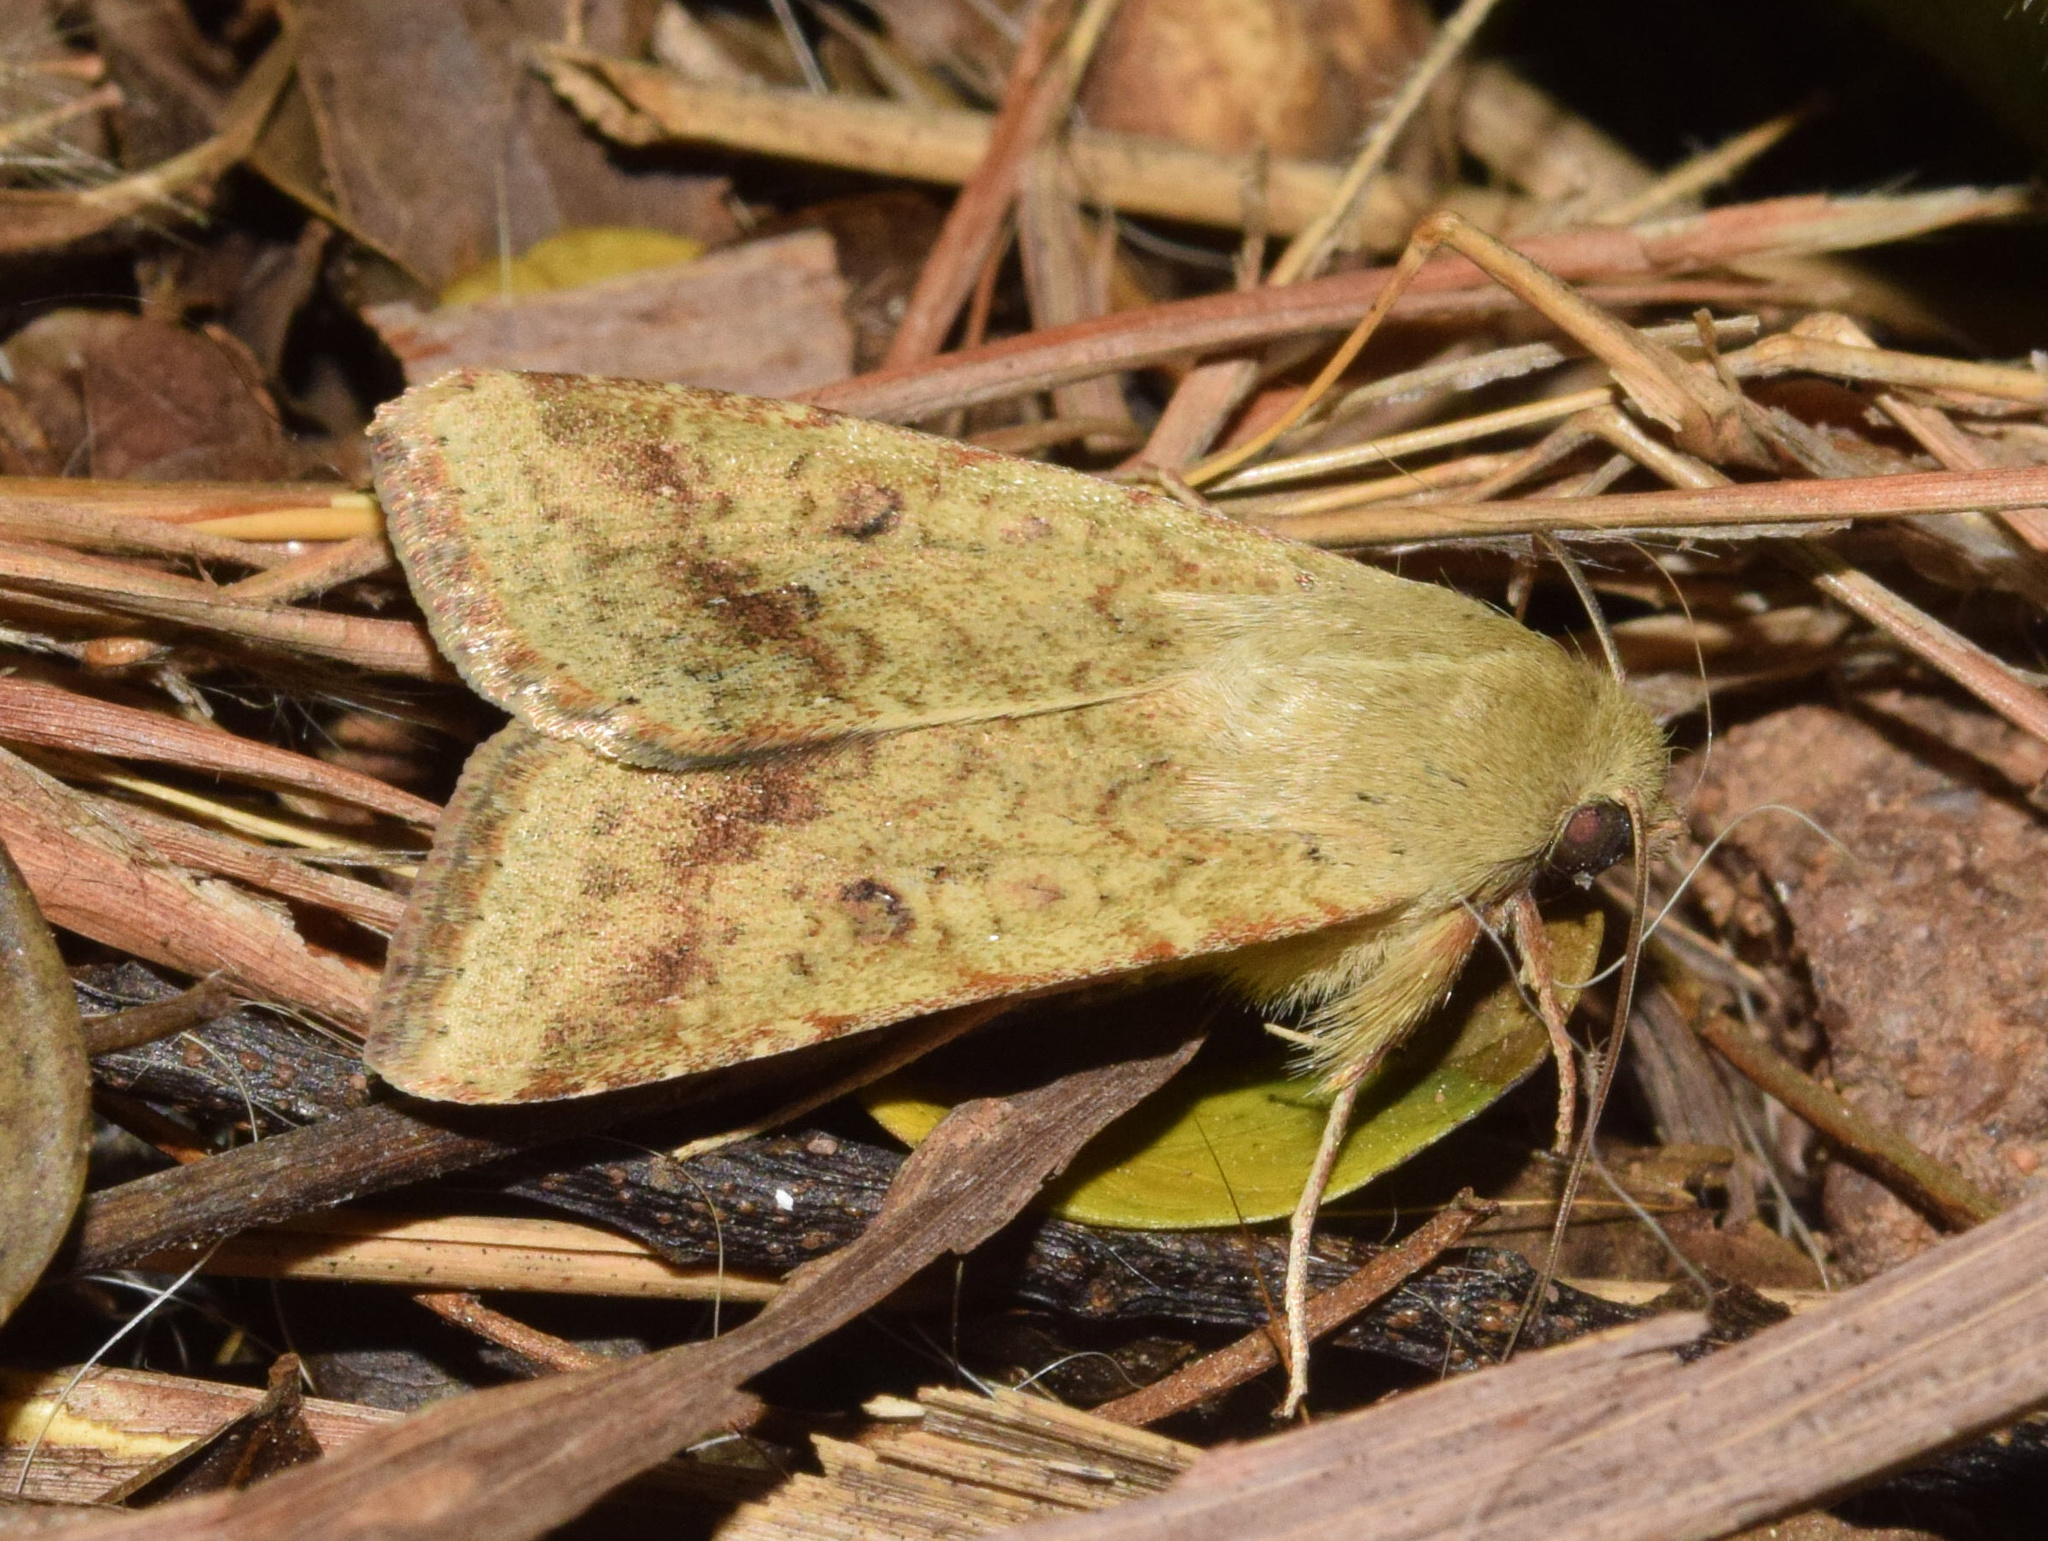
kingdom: Animalia
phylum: Arthropoda
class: Insecta
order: Lepidoptera
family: Noctuidae
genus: Helicoverpa
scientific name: Helicoverpa armigera
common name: Cotton bollworm
